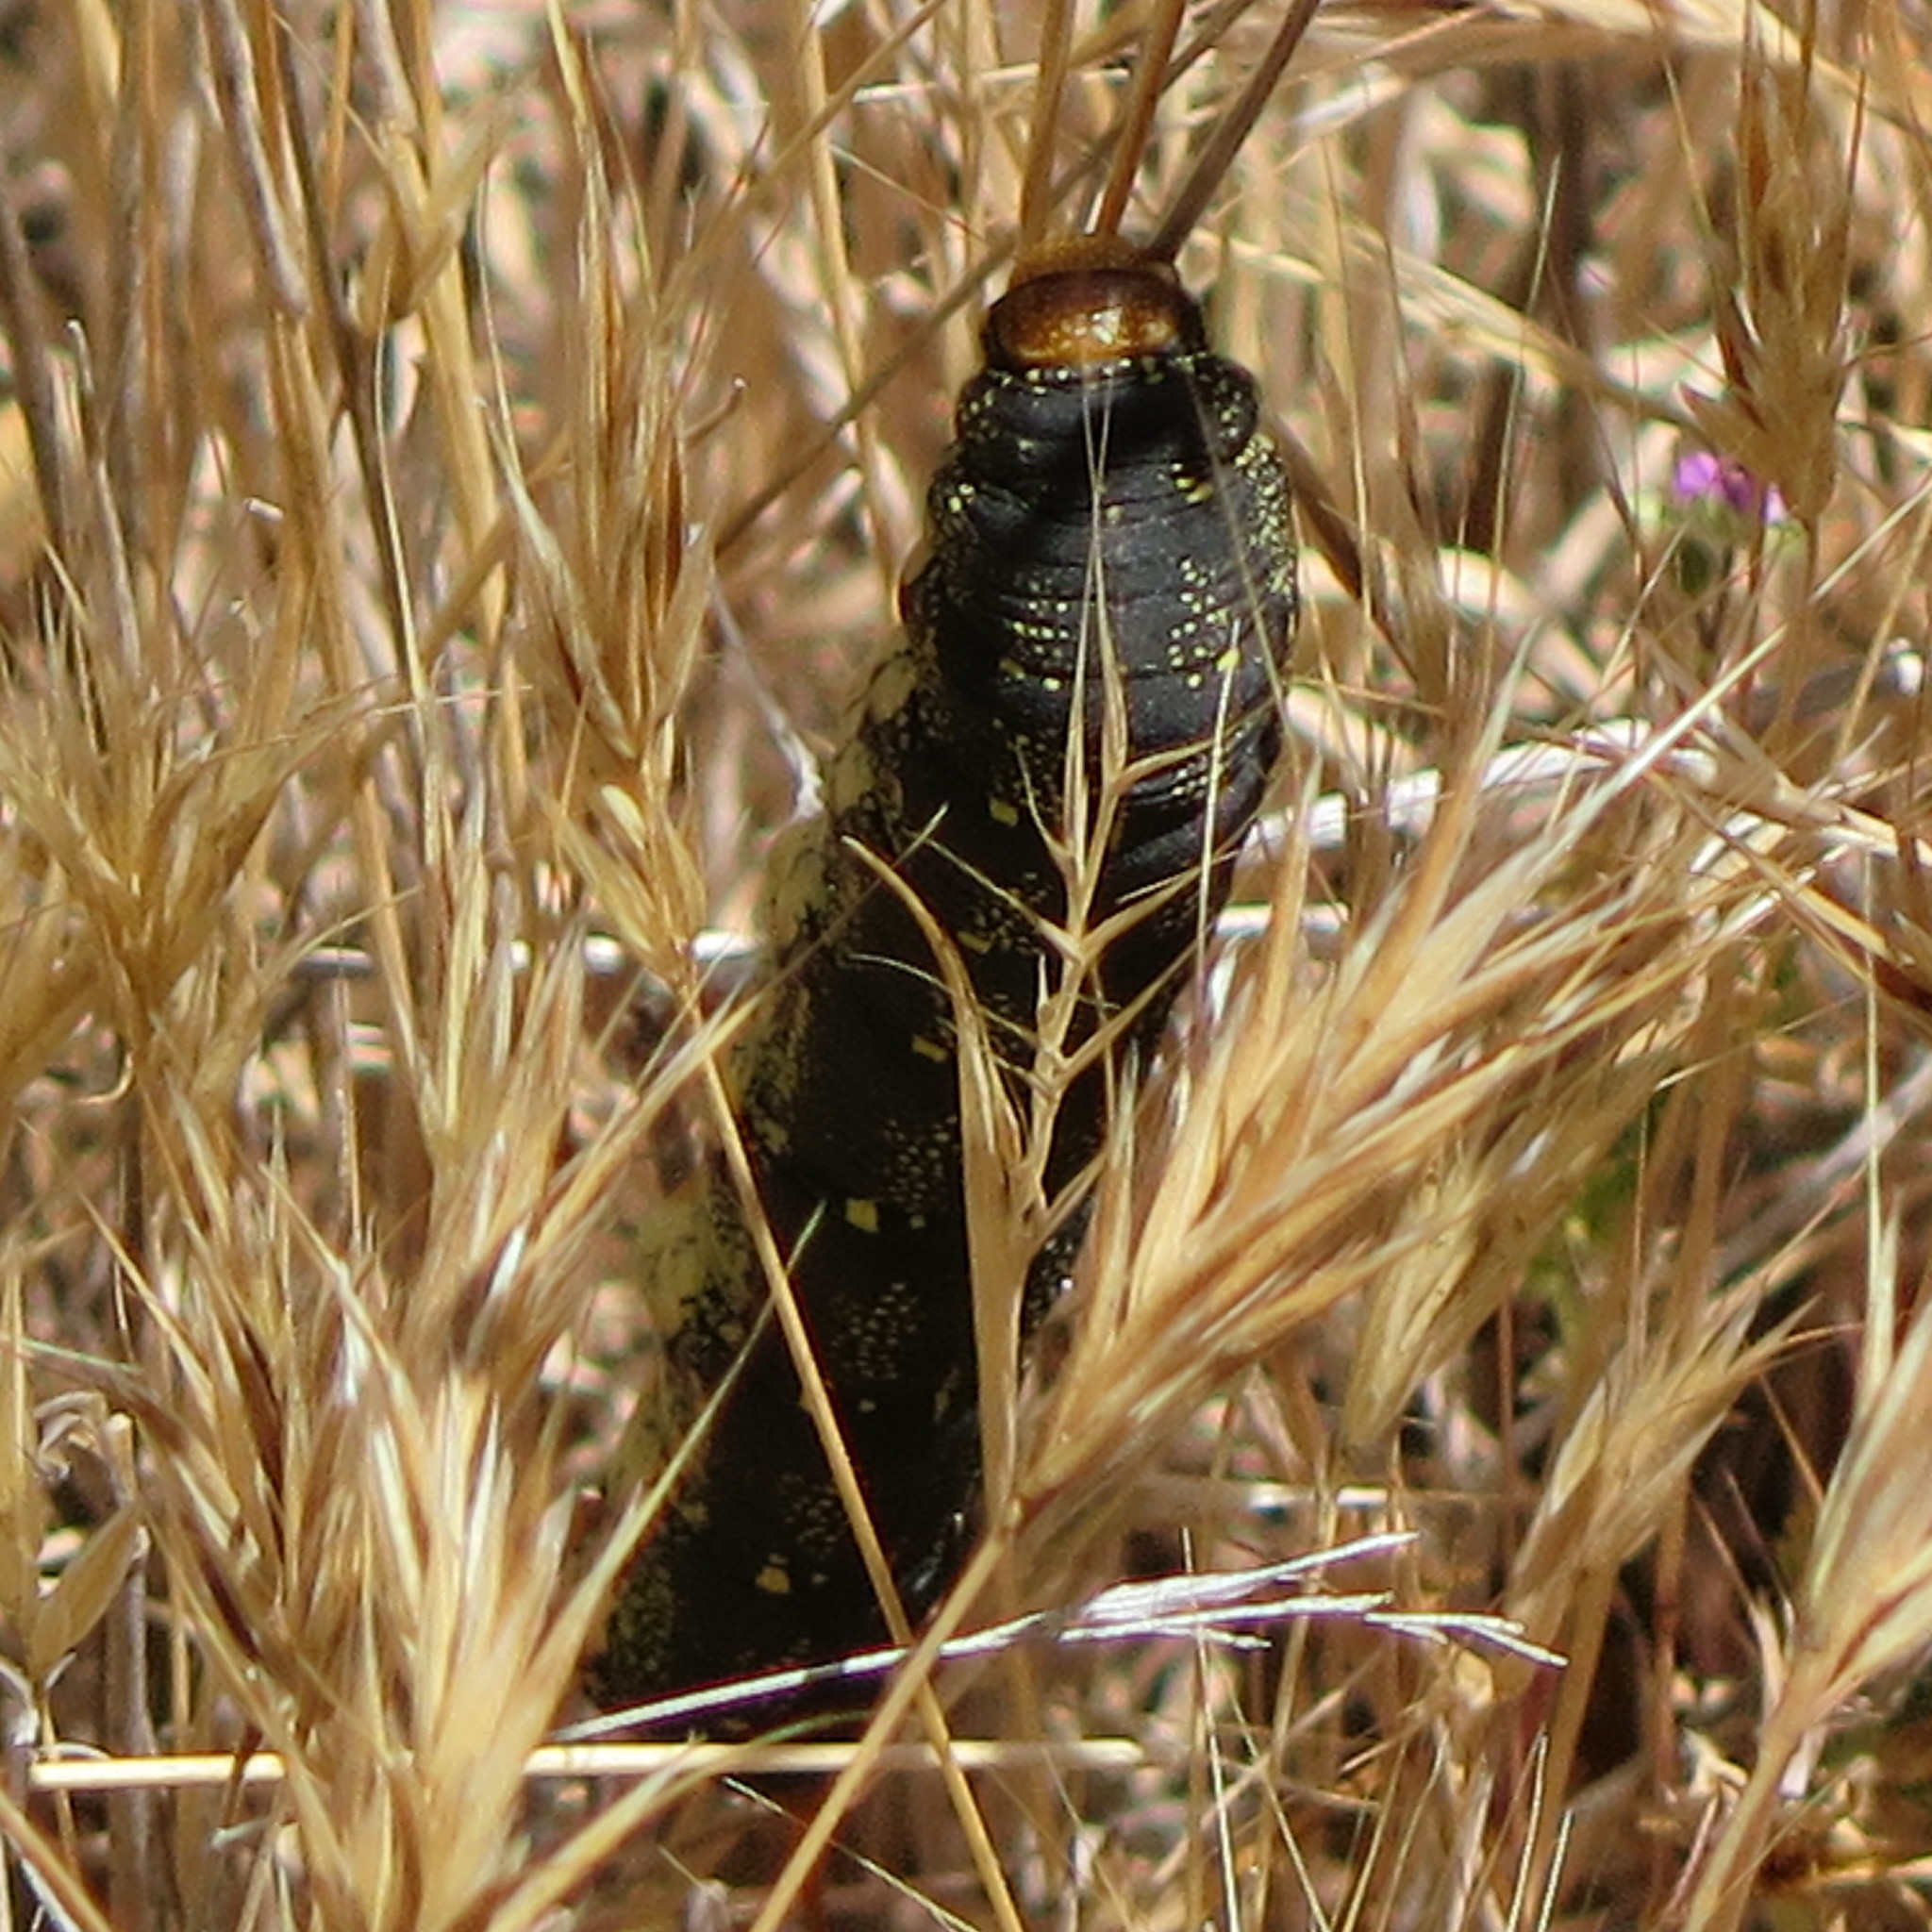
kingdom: Animalia
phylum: Arthropoda
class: Insecta
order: Lepidoptera
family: Sphingidae
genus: Hyles
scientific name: Hyles lineata
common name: White-lined sphinx
